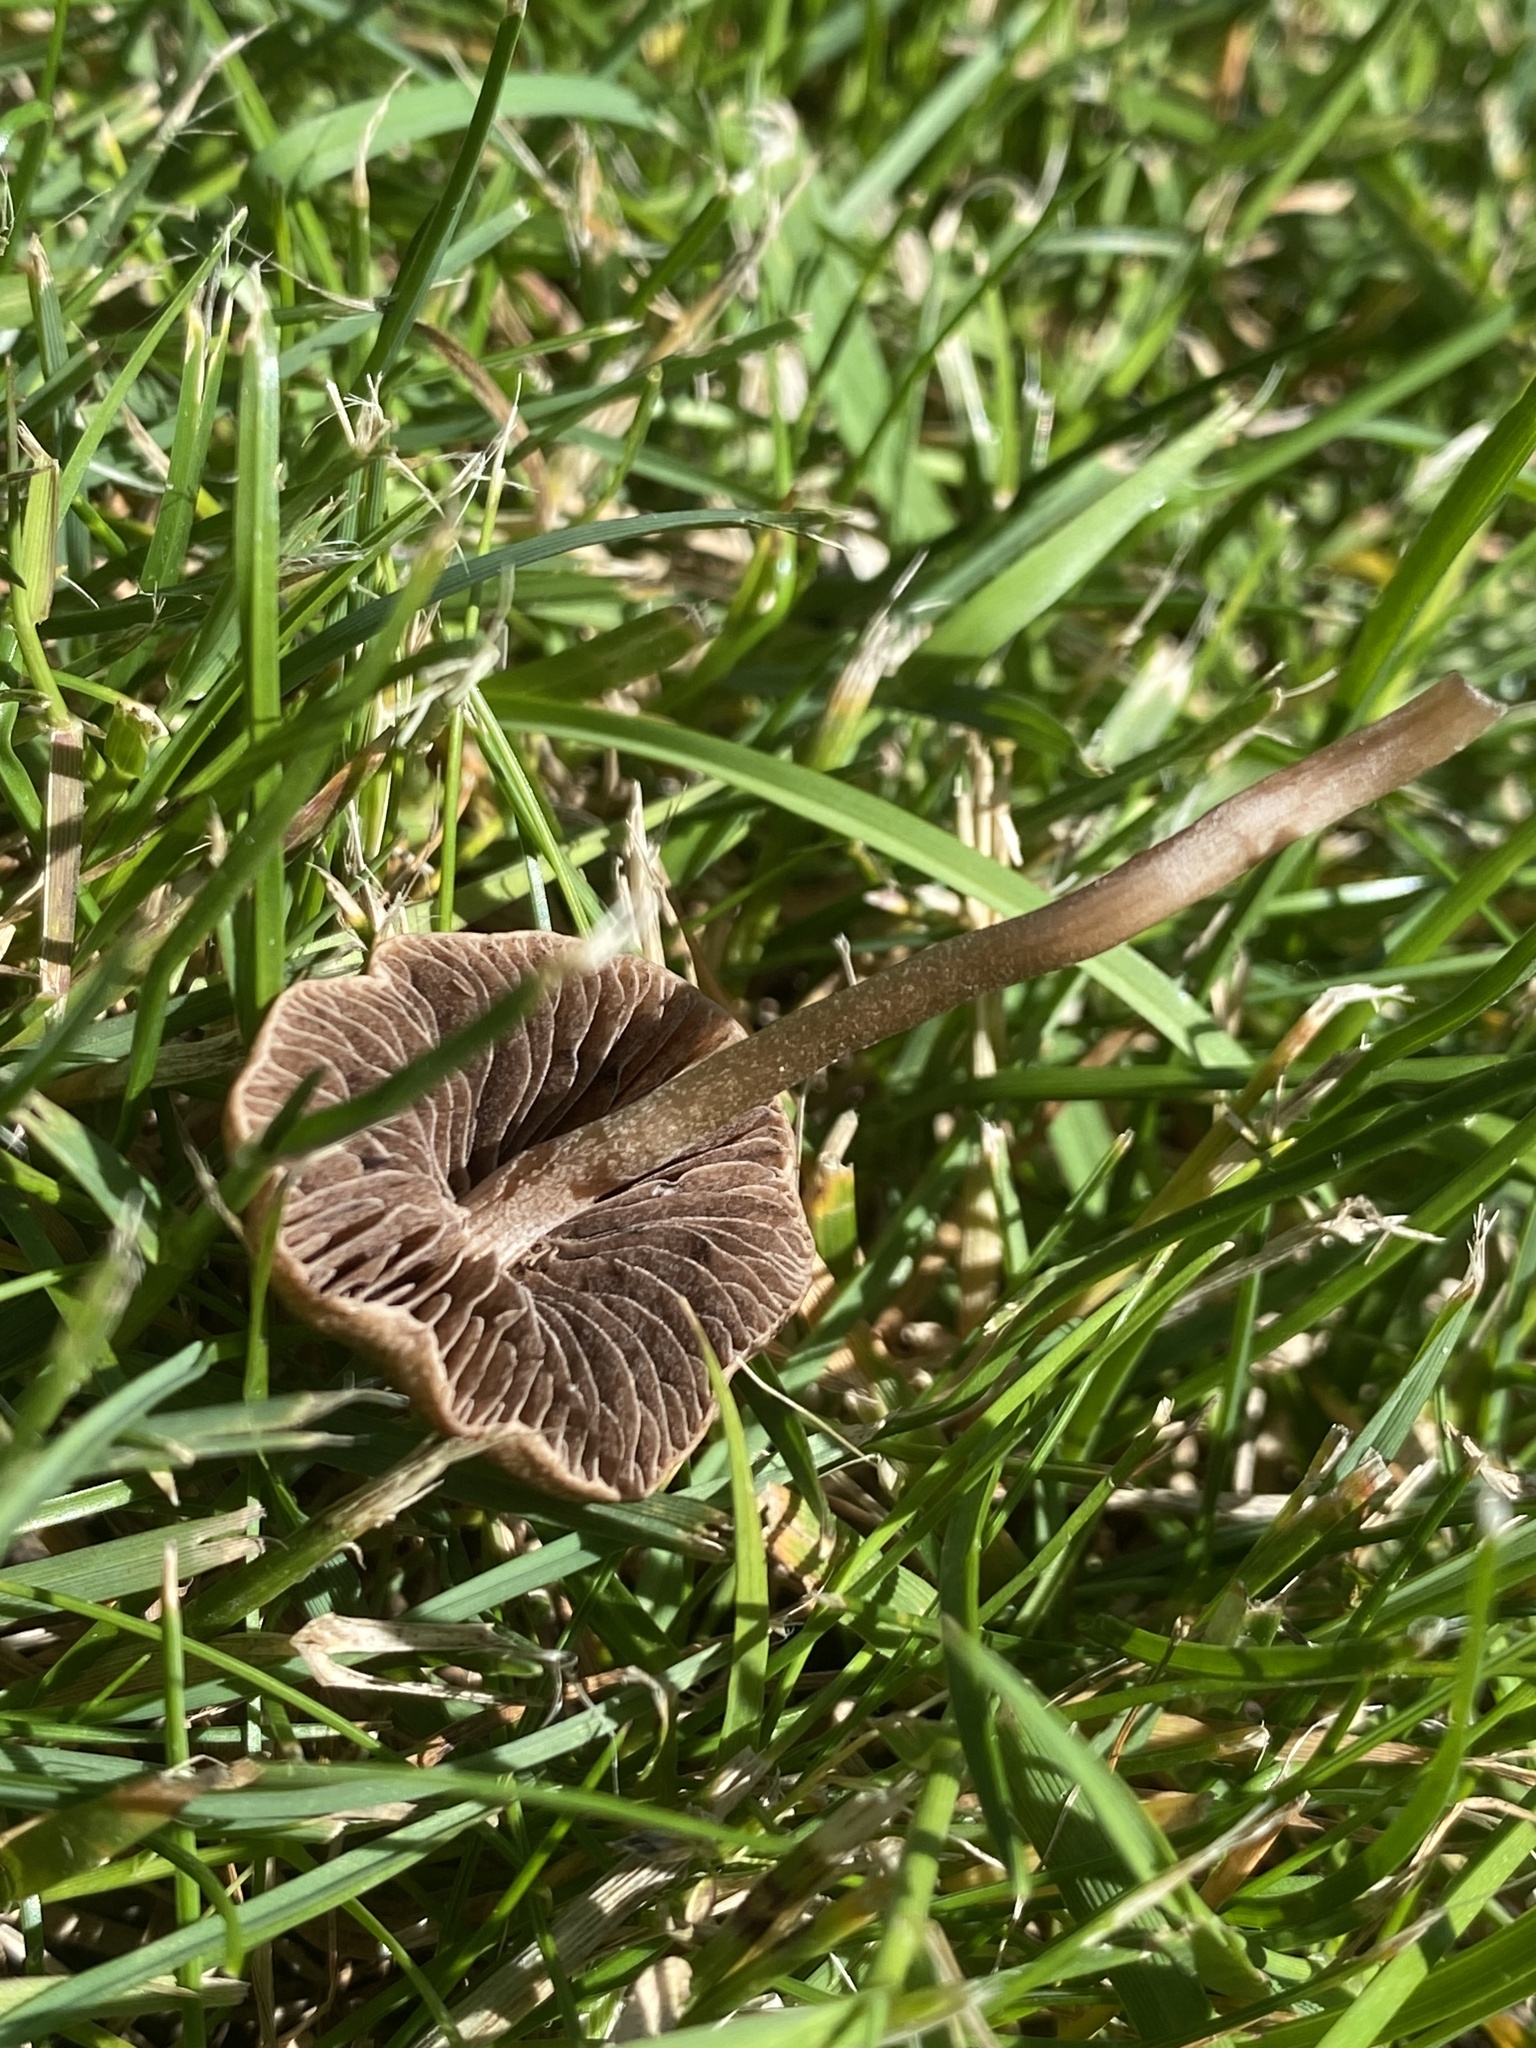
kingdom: Fungi
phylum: Basidiomycota
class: Agaricomycetes
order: Agaricales
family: Bolbitiaceae
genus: Panaeolina
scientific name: Panaeolina foenisecii
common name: Brown hay cap
